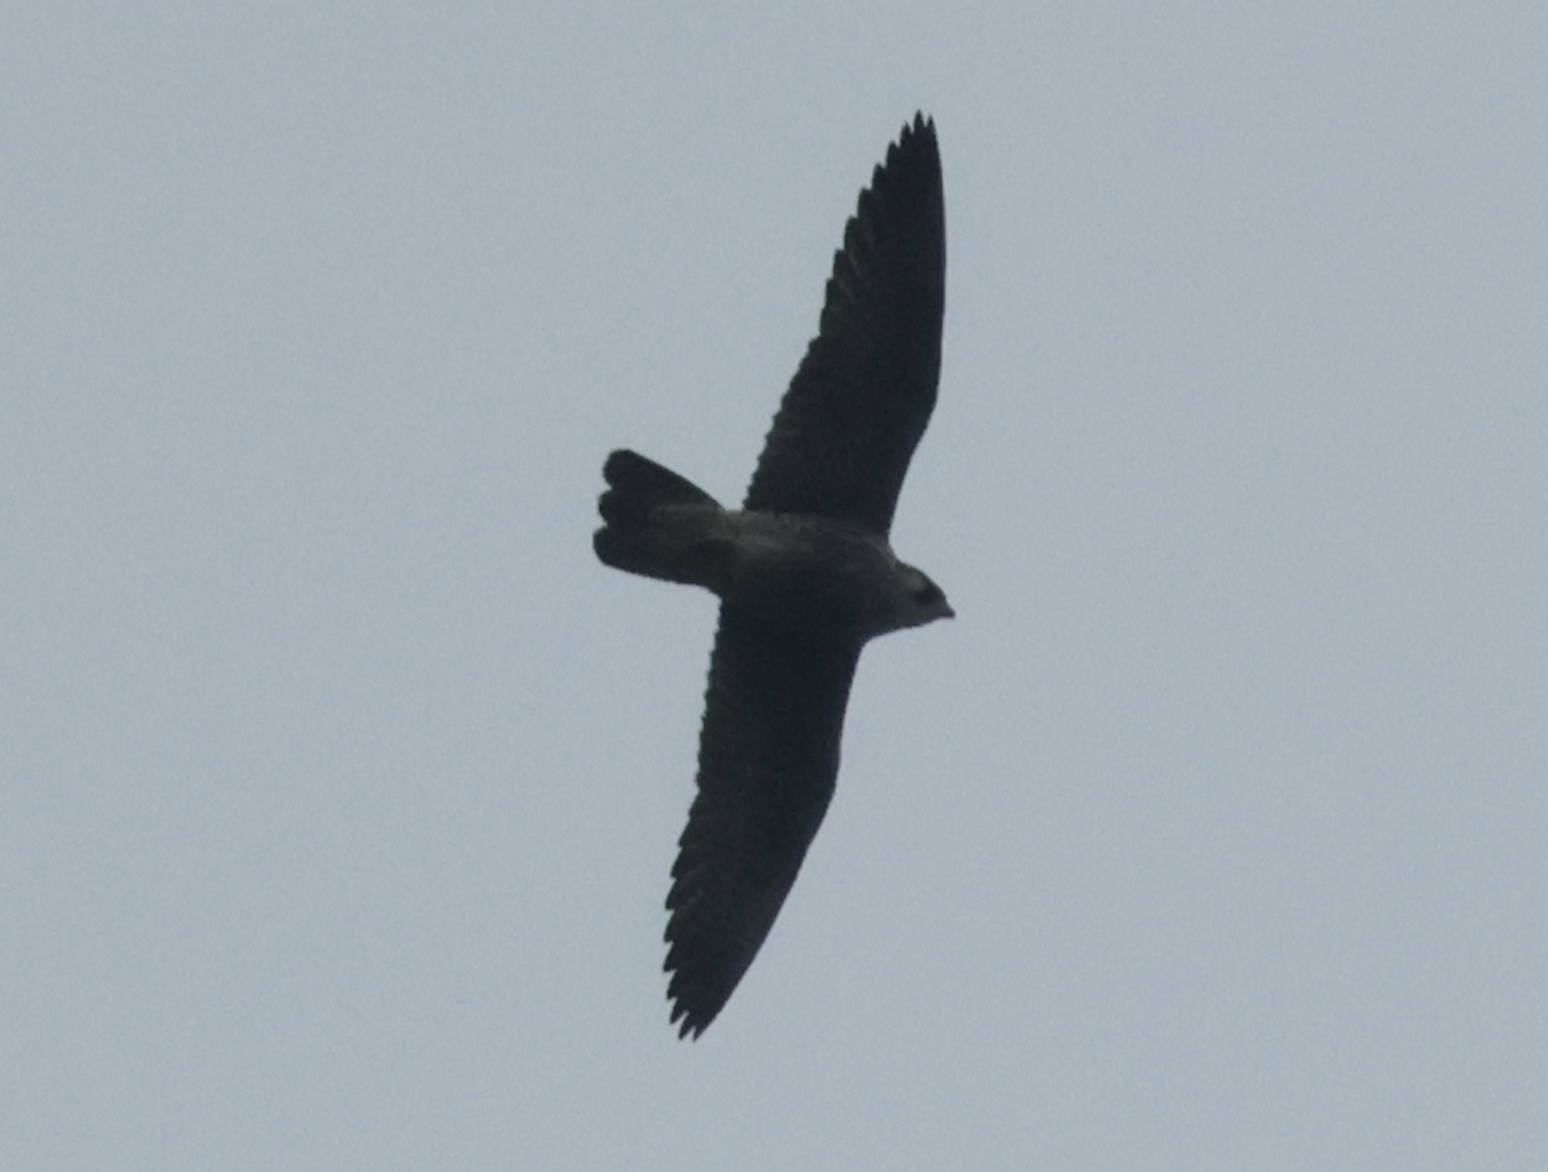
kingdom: Animalia
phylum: Chordata
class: Aves
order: Falconiformes
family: Falconidae
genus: Falco
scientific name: Falco peregrinus
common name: Peregrine falcon
